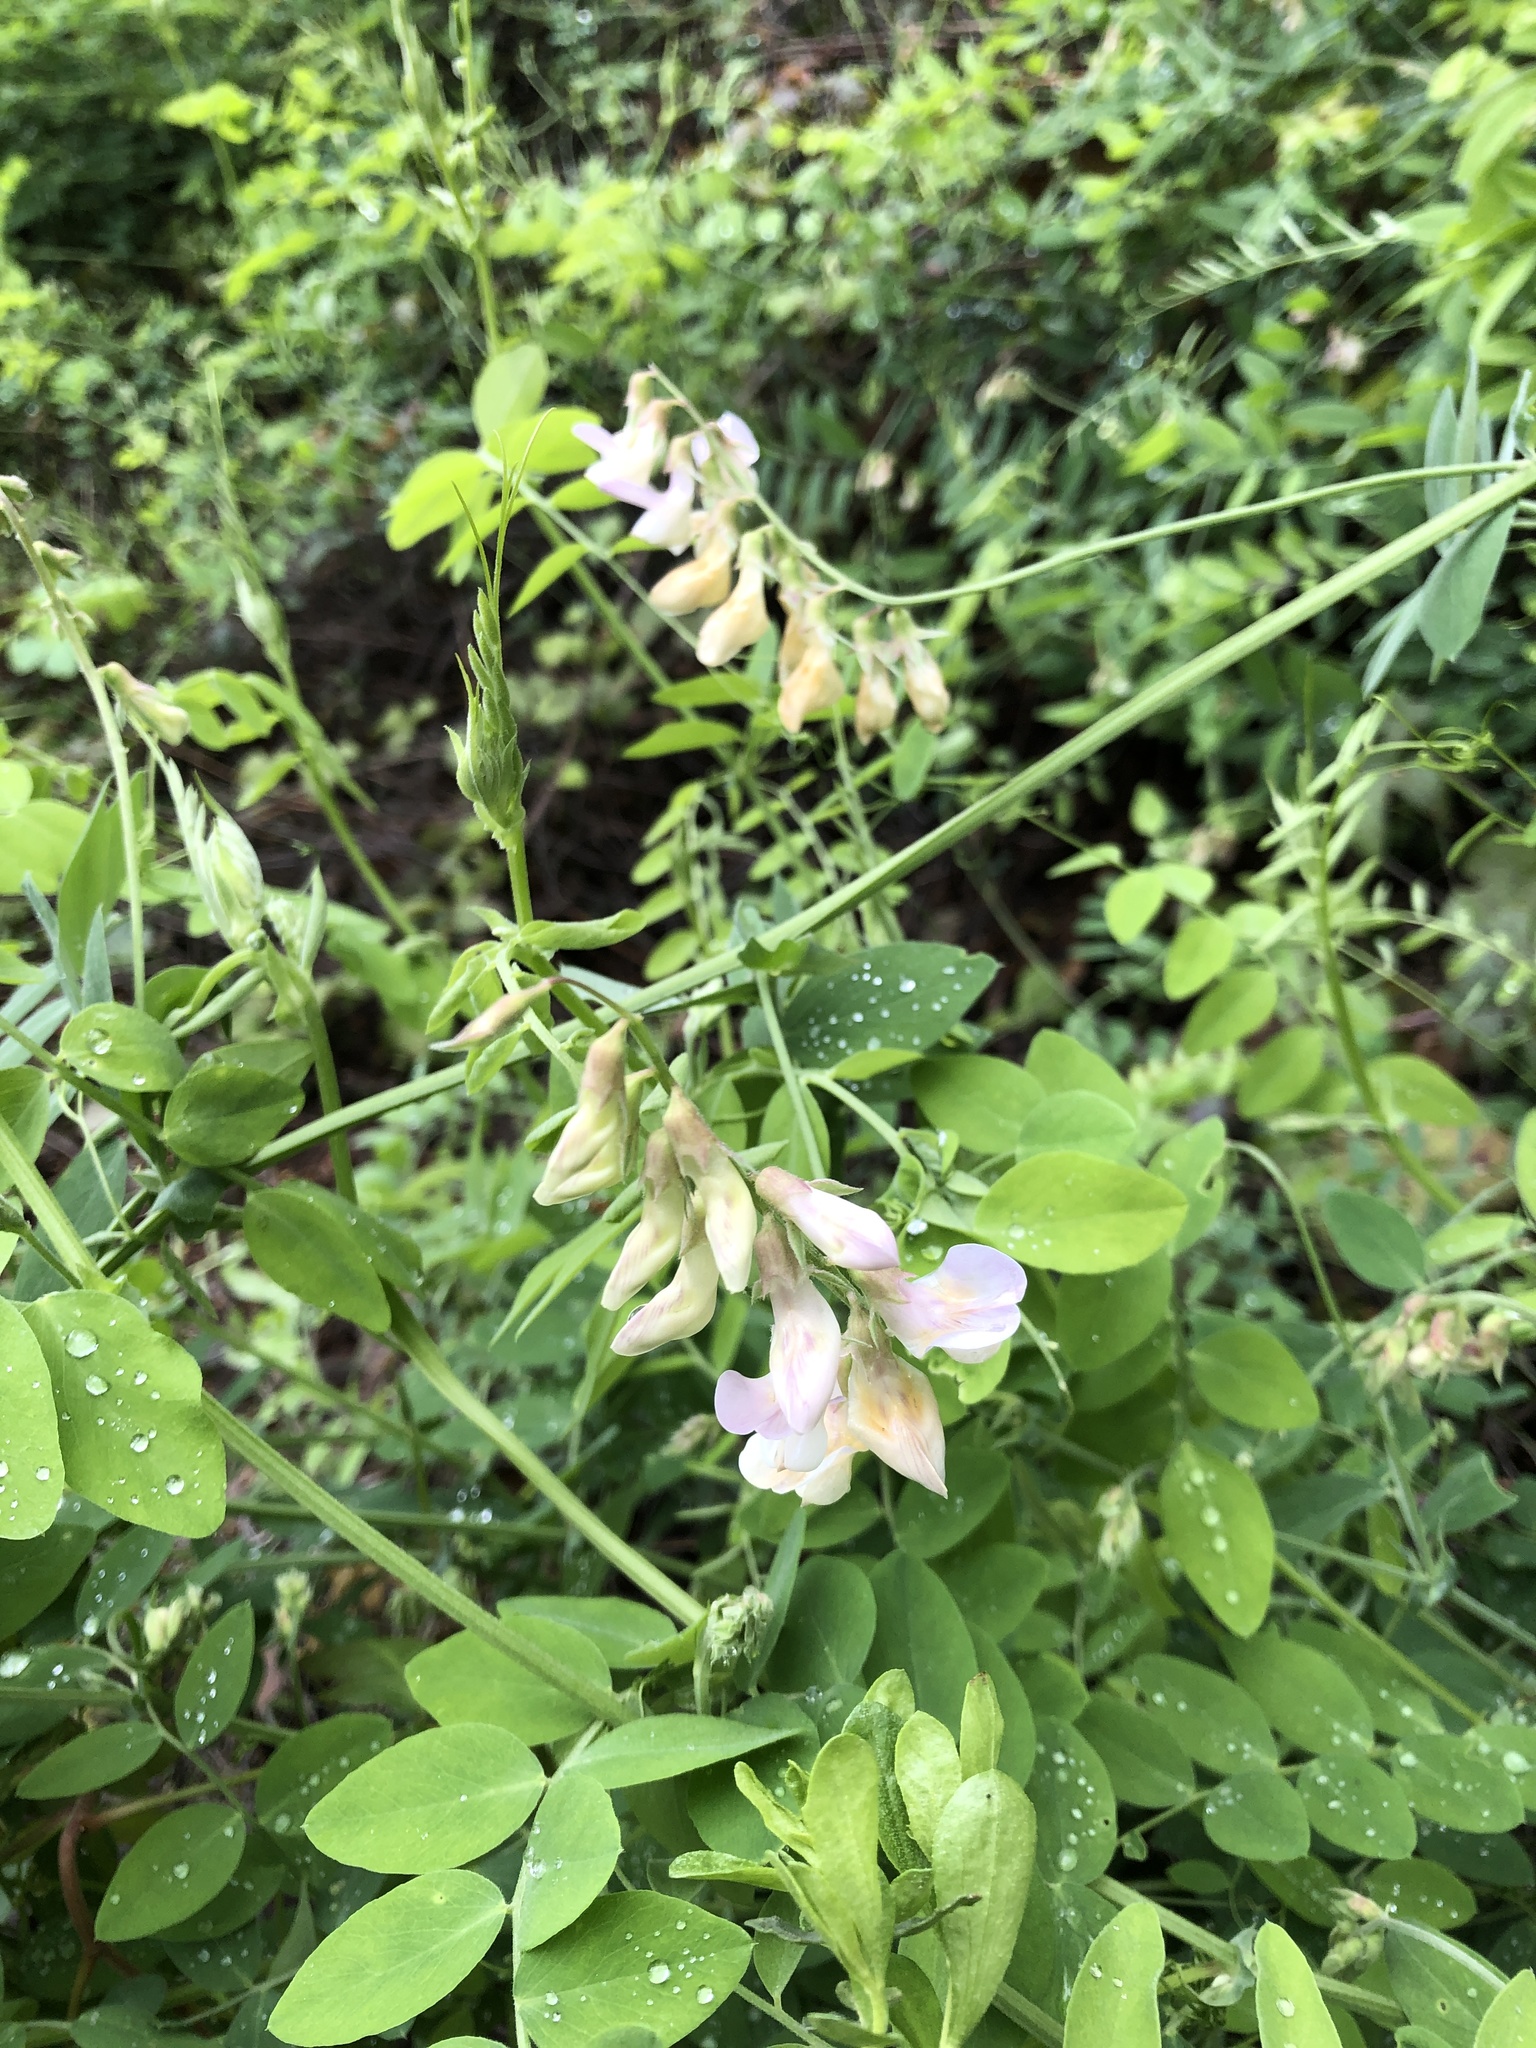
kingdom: Plantae
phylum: Tracheophyta
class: Magnoliopsida
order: Fabales
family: Fabaceae
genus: Lathyrus
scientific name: Lathyrus vestitus
